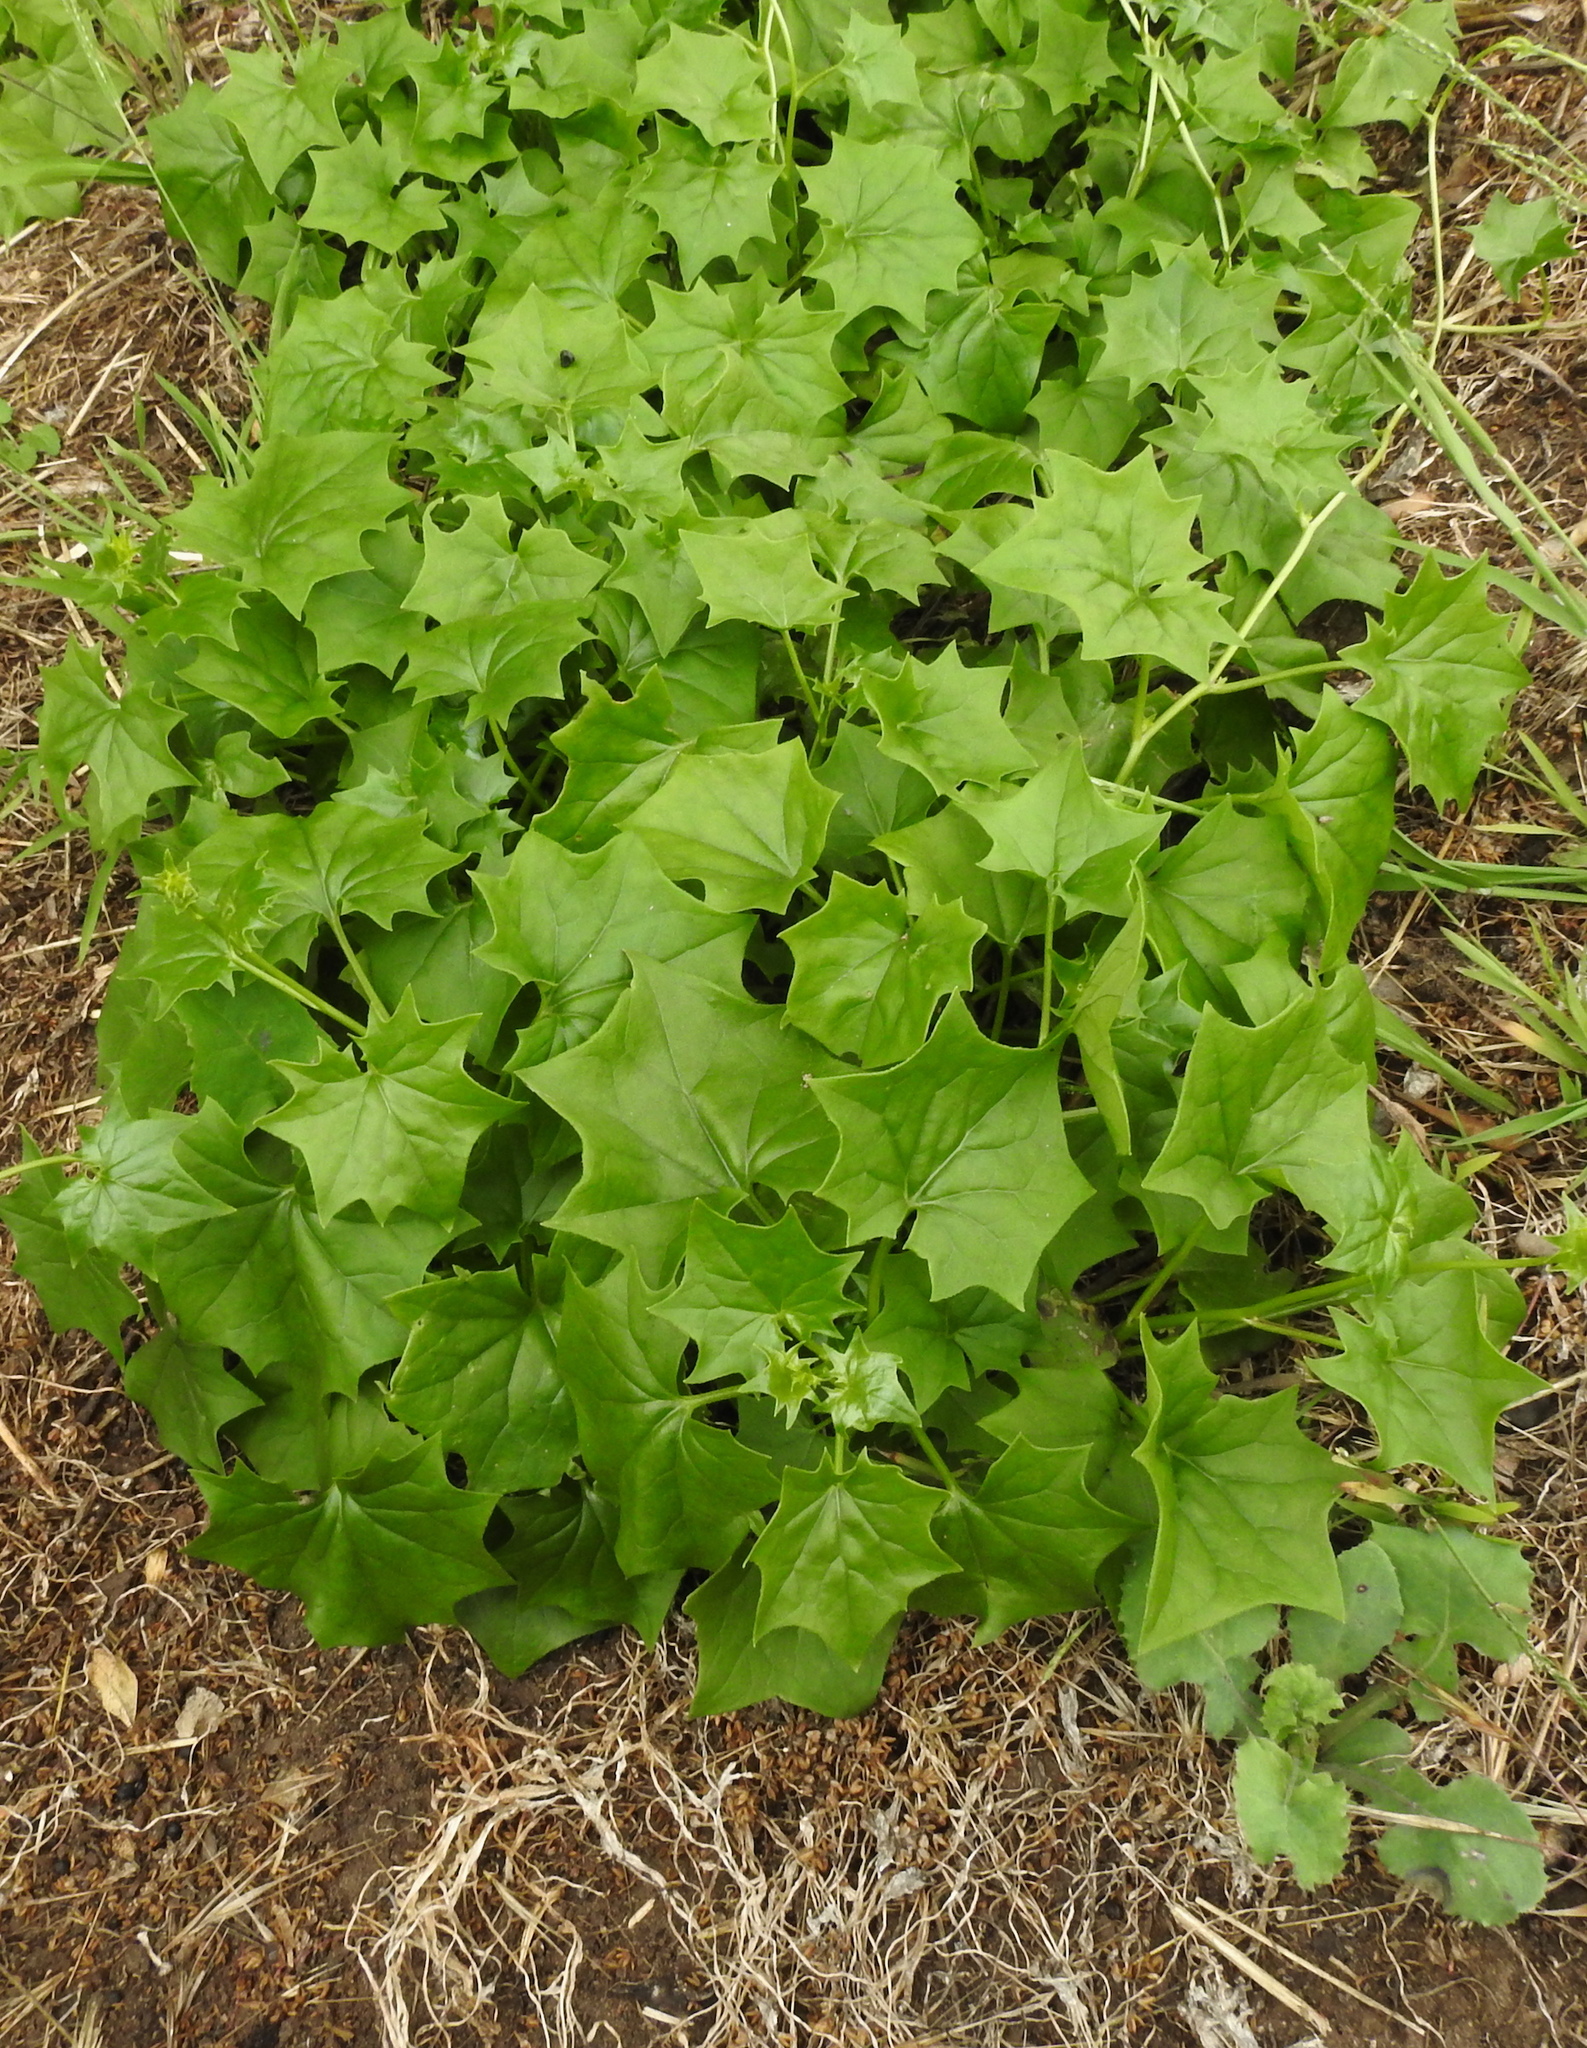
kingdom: Plantae
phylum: Tracheophyta
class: Magnoliopsida
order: Asterales
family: Asteraceae
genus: Delairea
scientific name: Delairea odorata
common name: Cape-ivy
